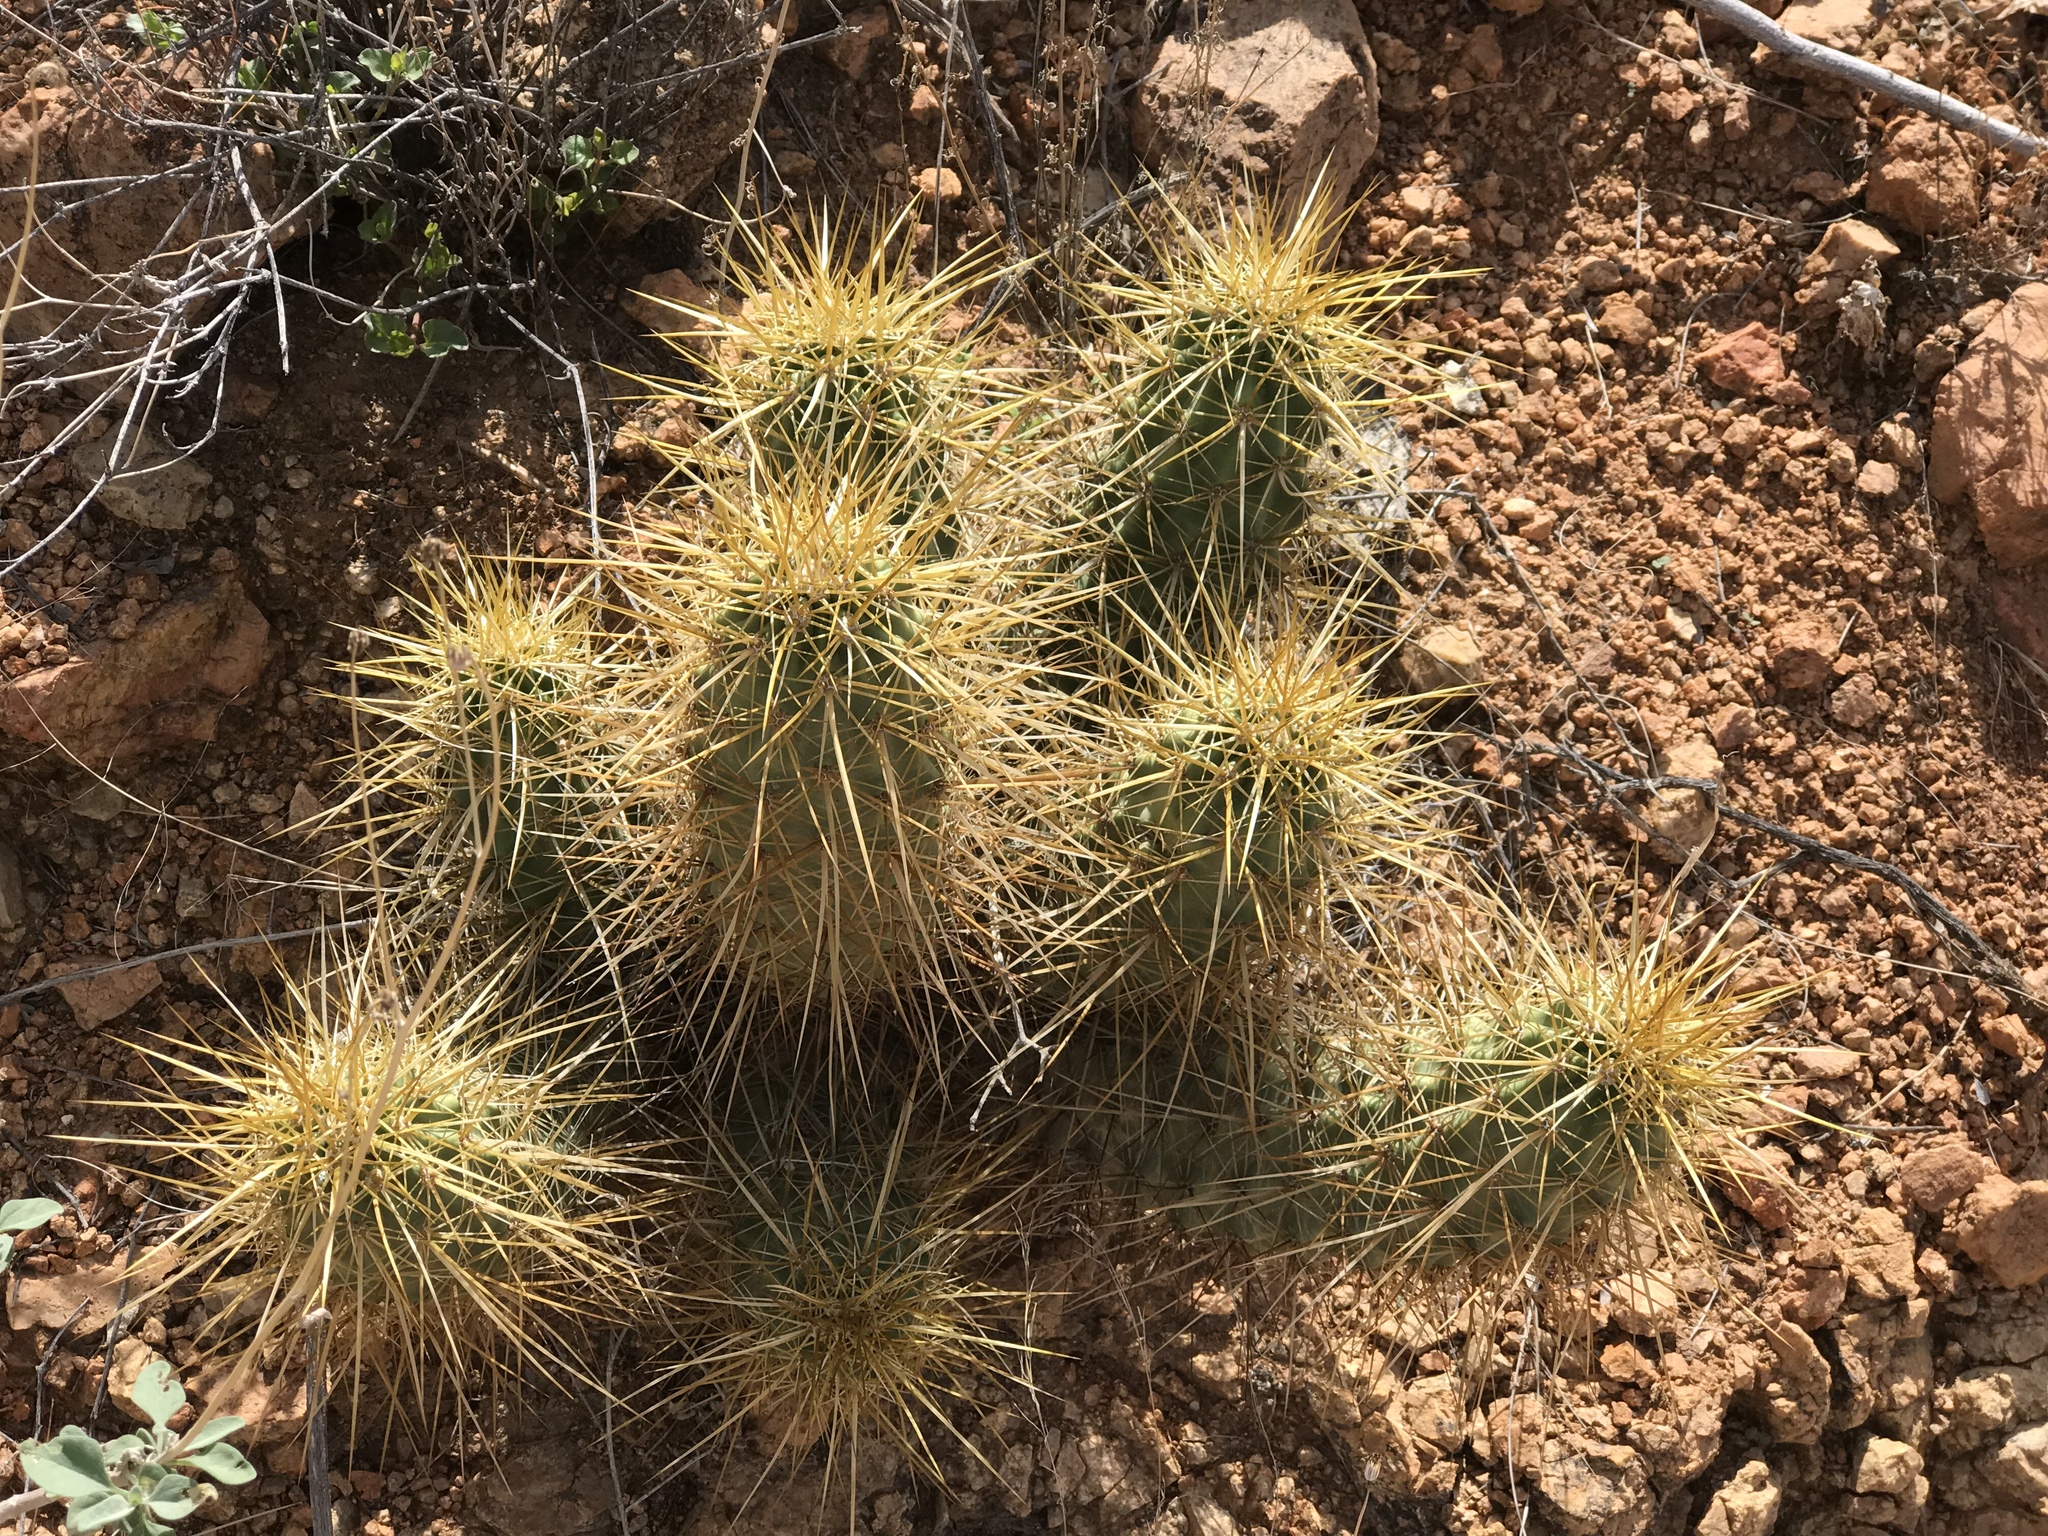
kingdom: Plantae
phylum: Tracheophyta
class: Magnoliopsida
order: Caryophyllales
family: Cactaceae
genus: Echinocereus
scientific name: Echinocereus nicholii
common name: Nichol's hedgehog cactus
